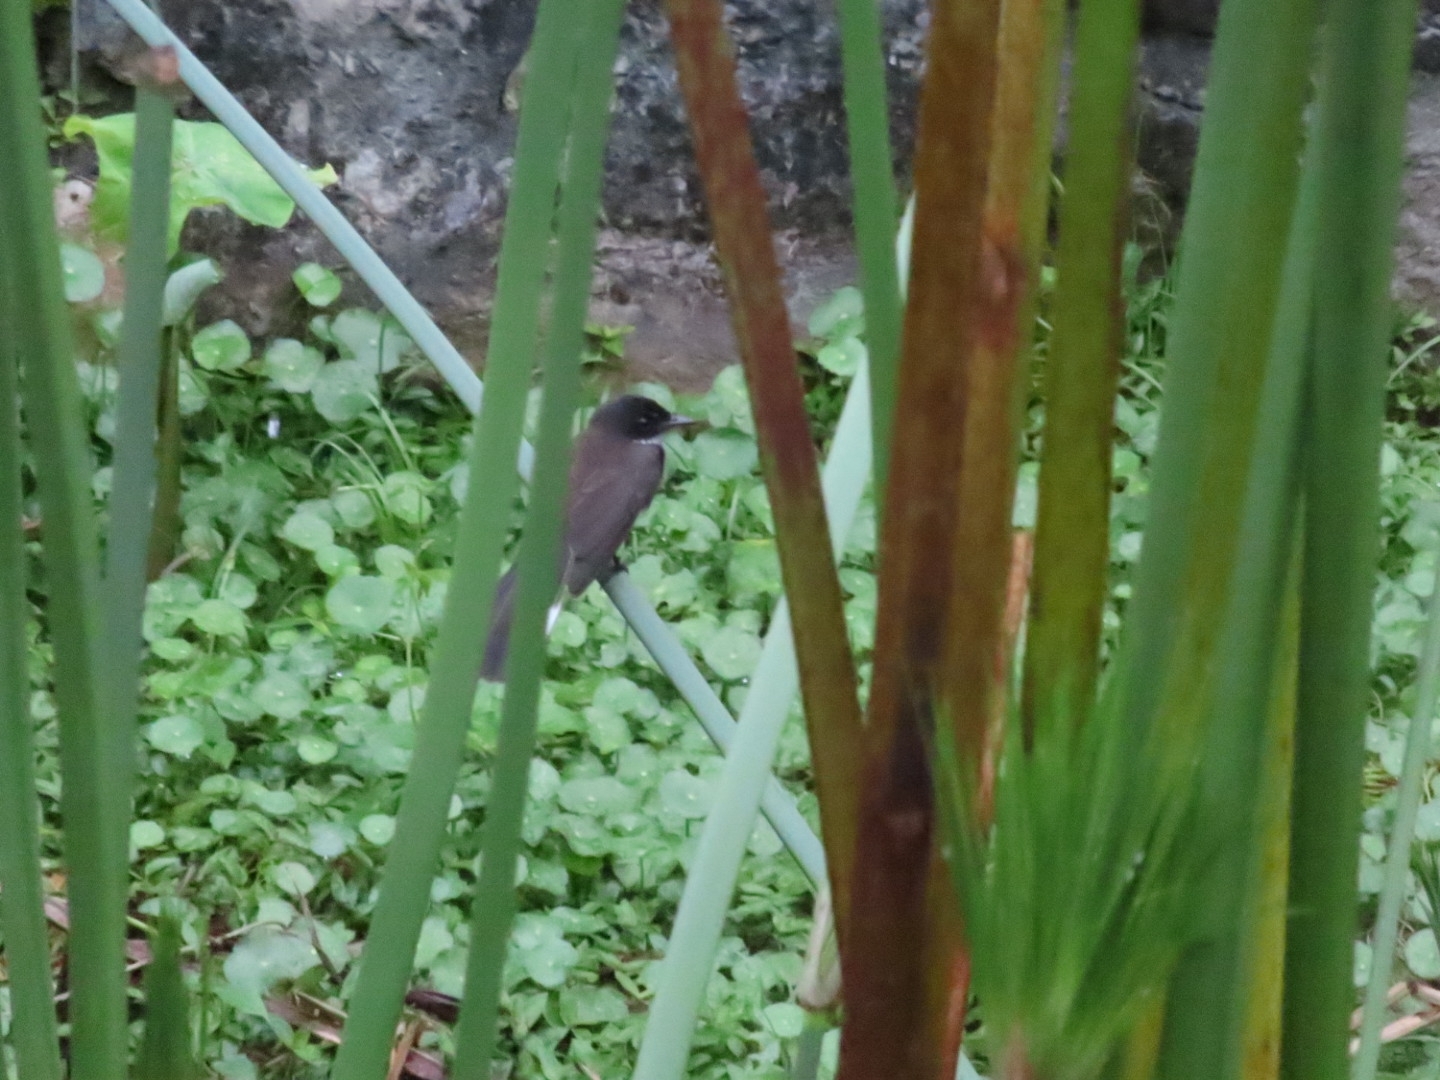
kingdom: Animalia
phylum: Chordata
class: Aves
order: Passeriformes
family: Rhipiduridae
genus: Rhipidura
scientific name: Rhipidura javanica
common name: Pied fantail
